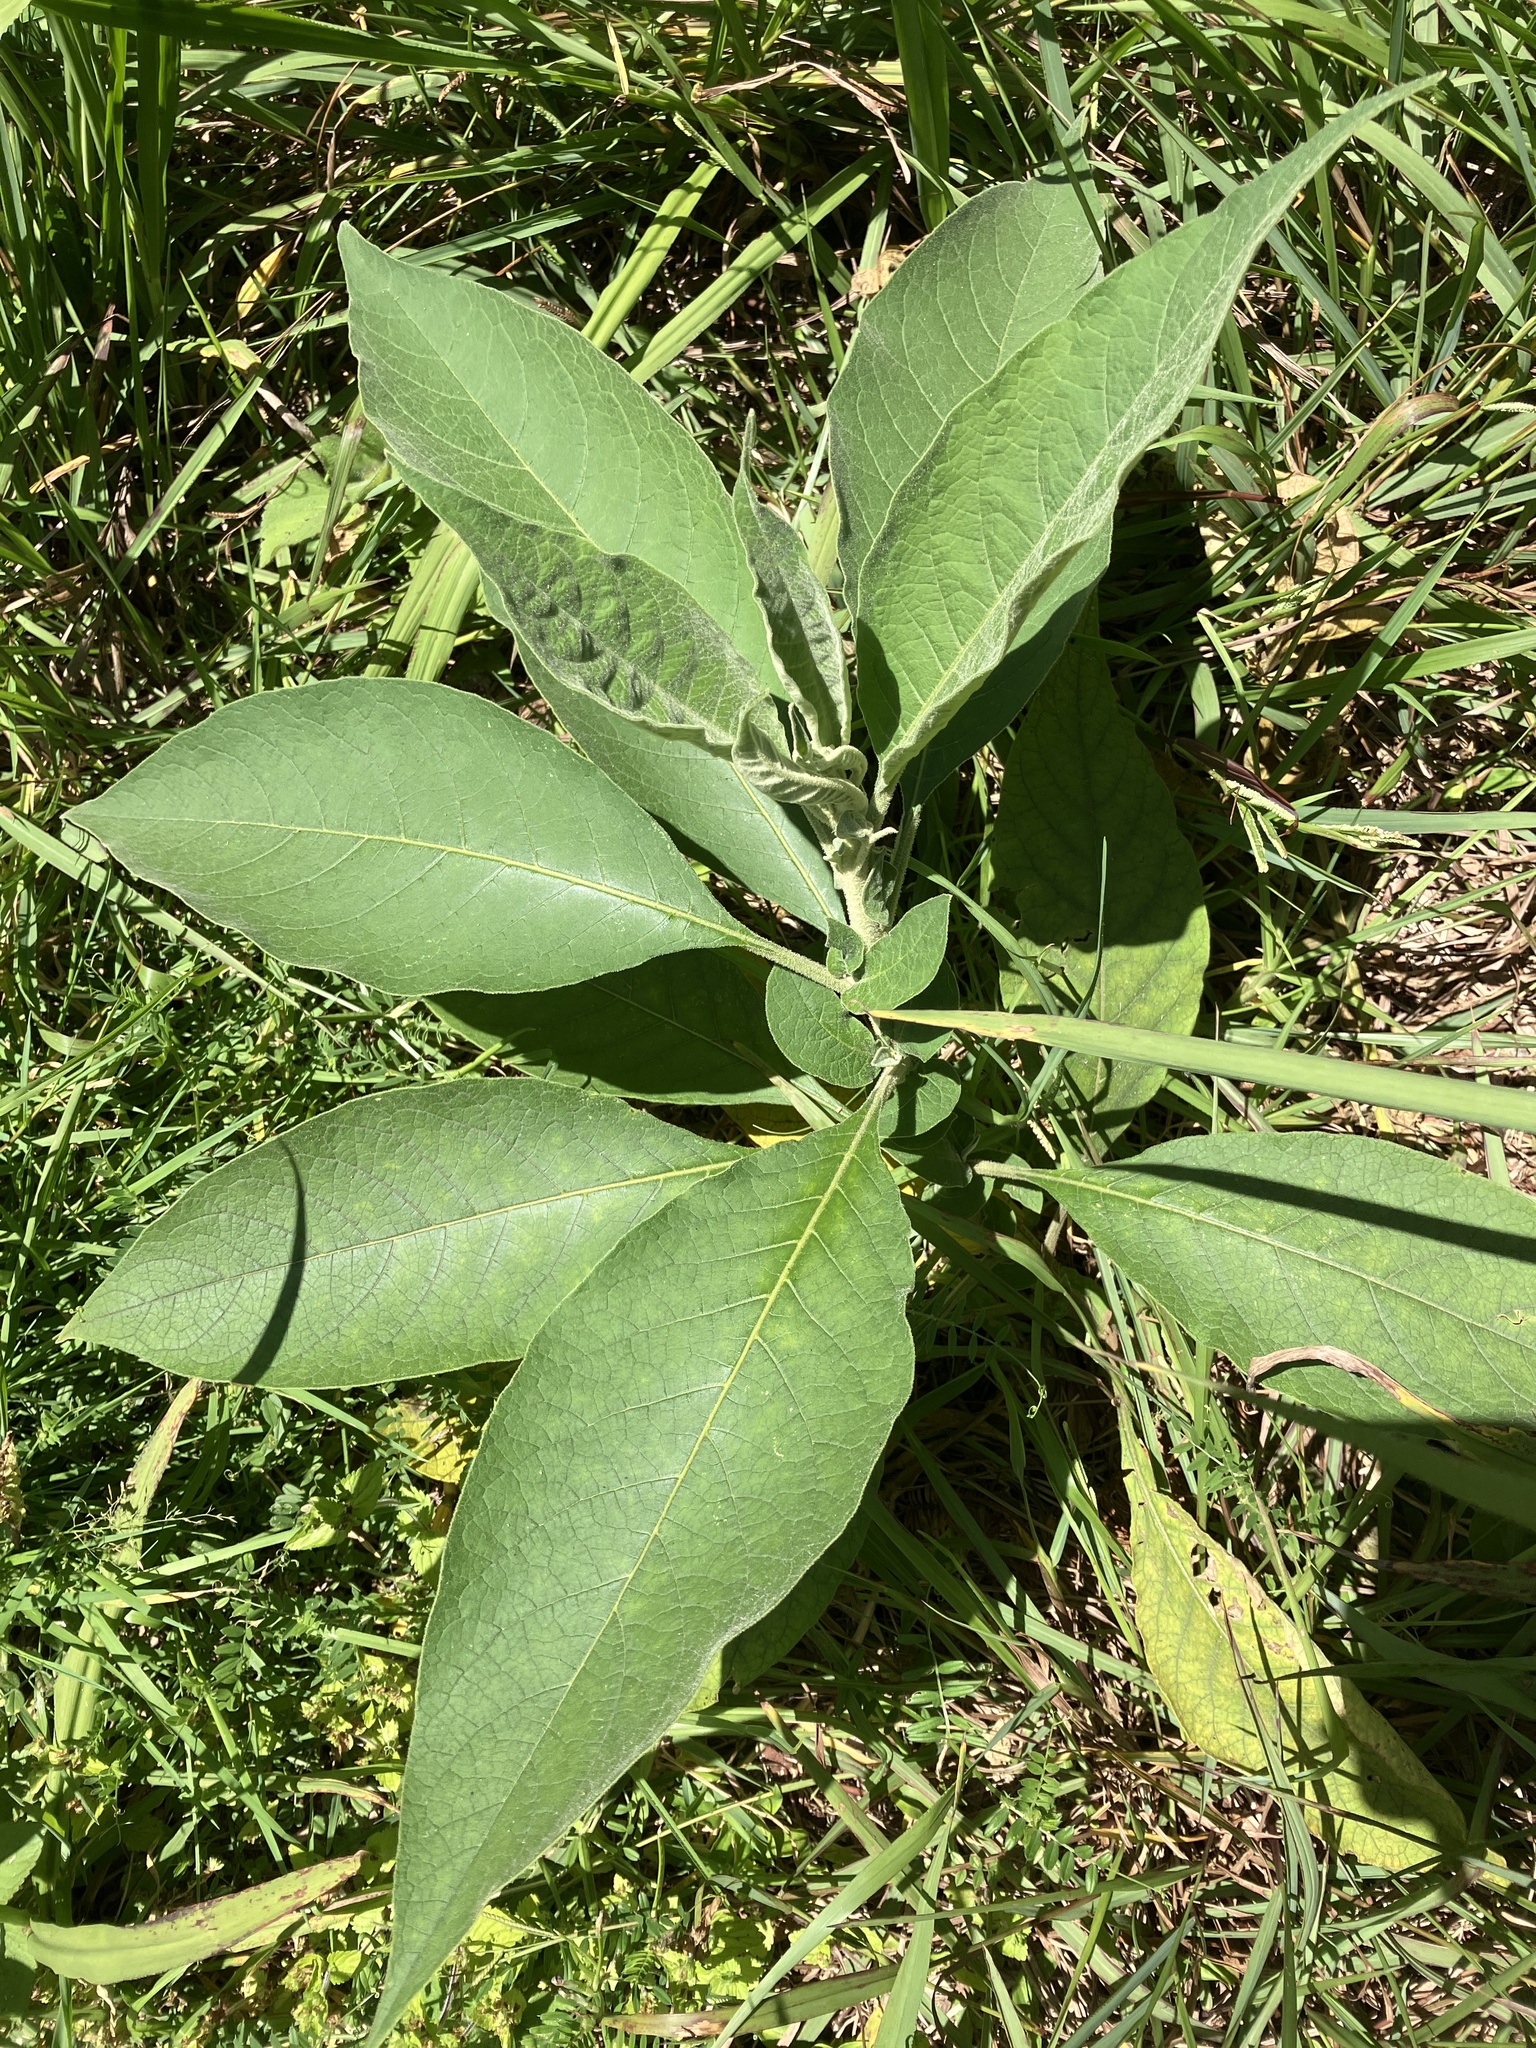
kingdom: Plantae
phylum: Tracheophyta
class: Magnoliopsida
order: Solanales
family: Solanaceae
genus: Solanum
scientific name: Solanum mauritianum
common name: Earleaf nightshade
